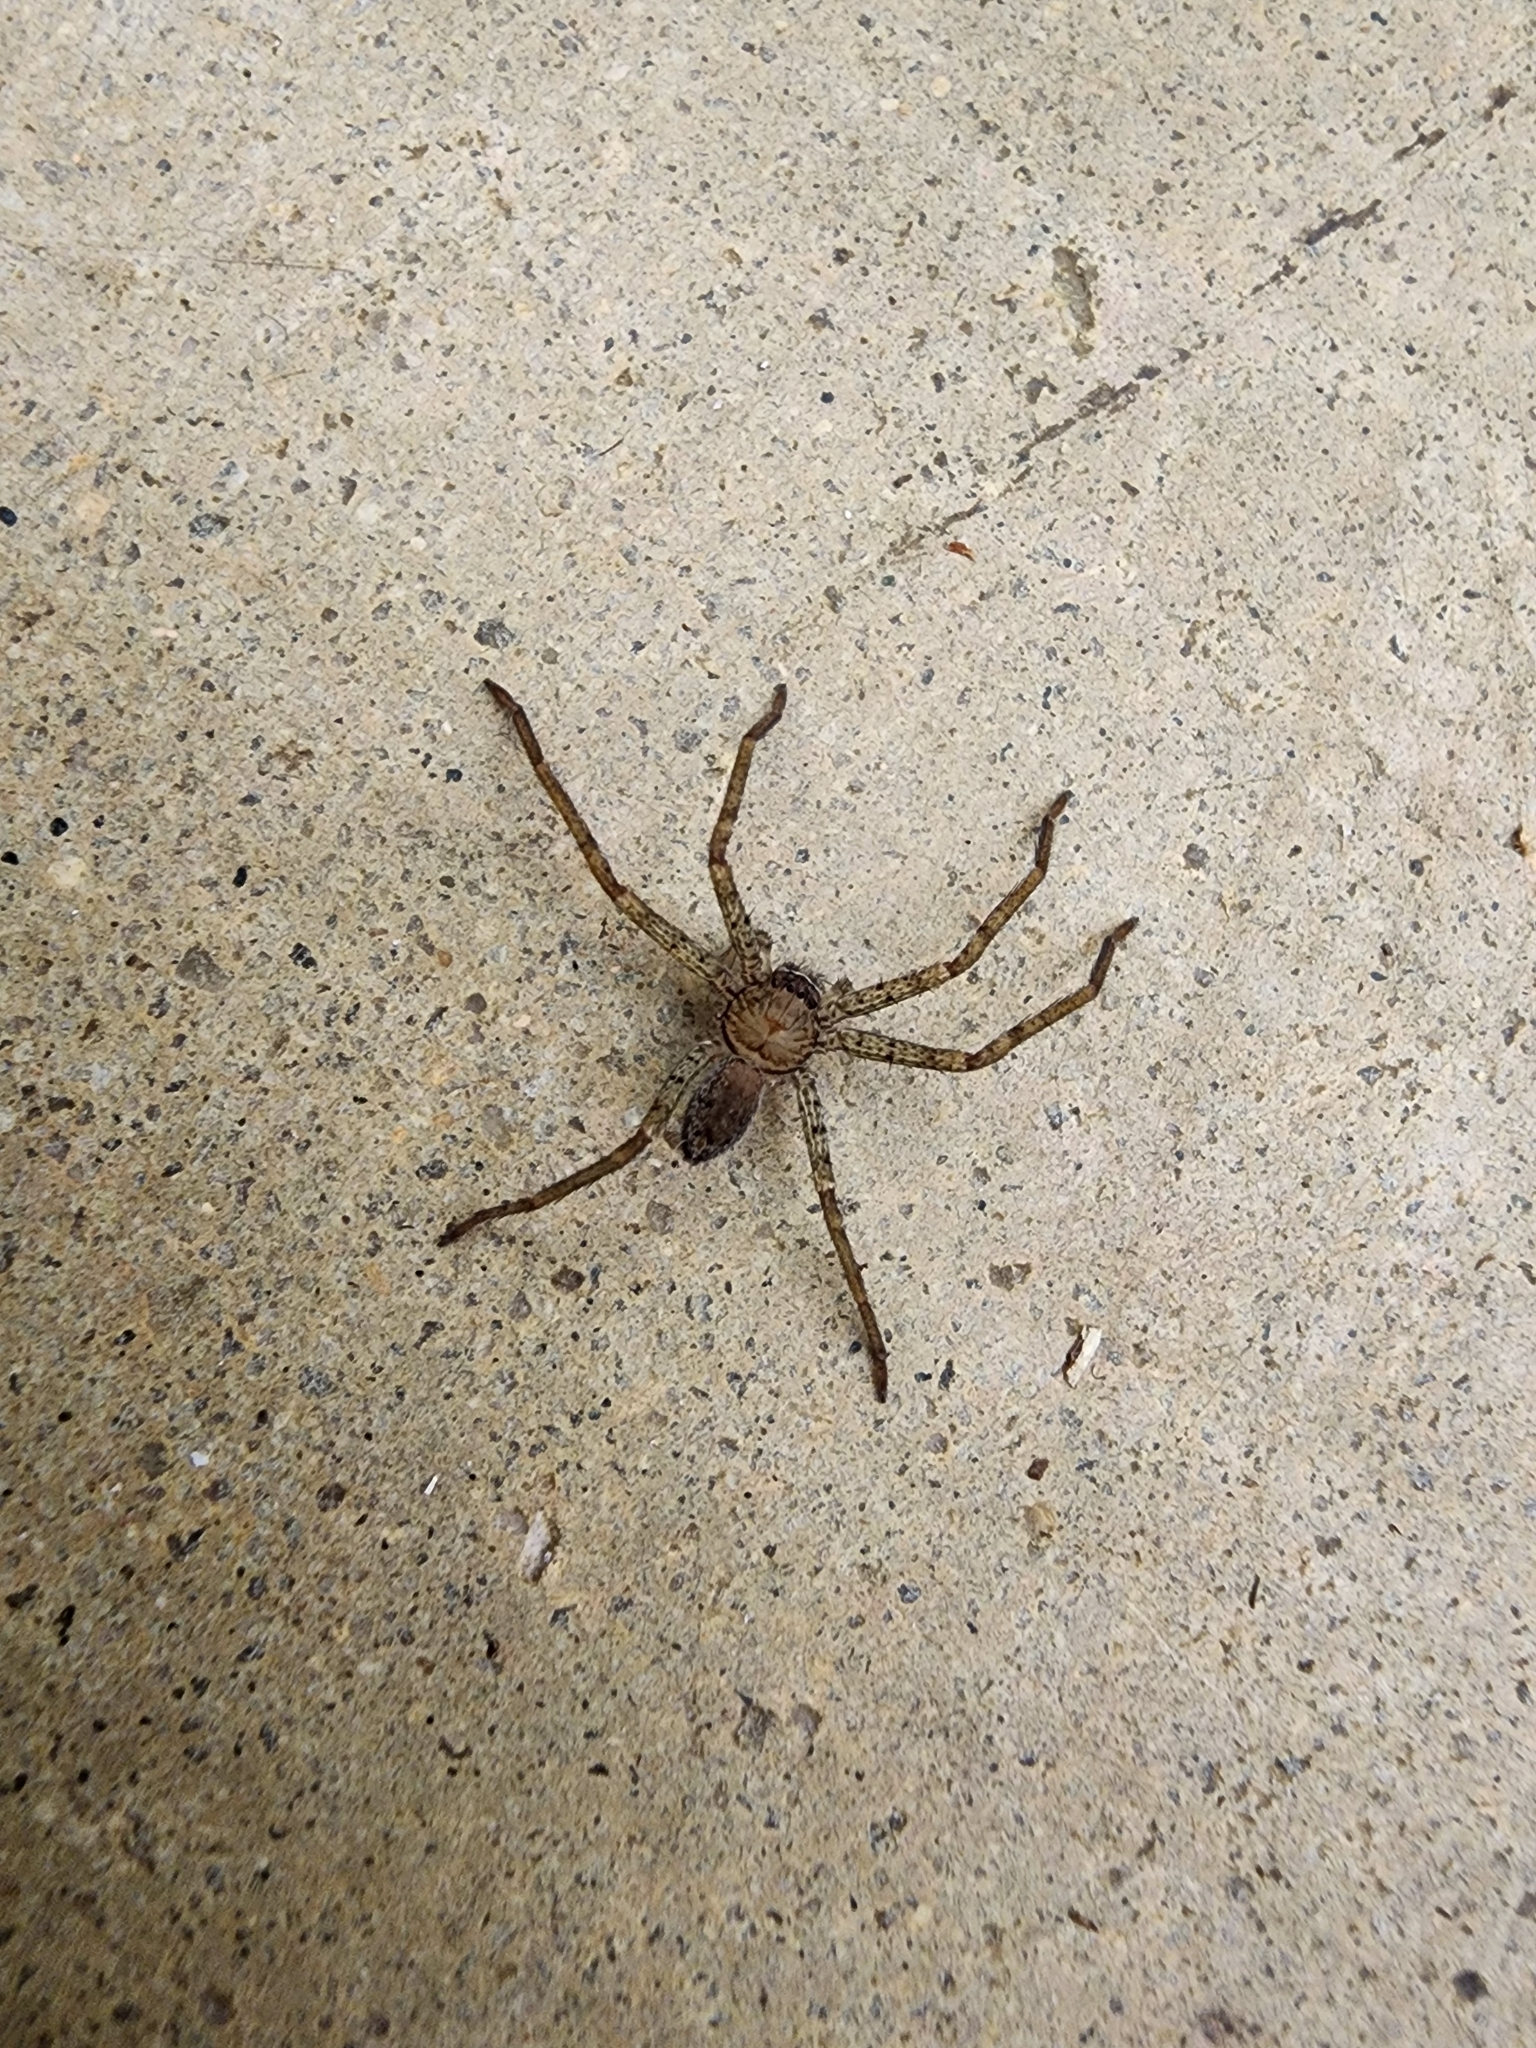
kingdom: Animalia
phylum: Arthropoda
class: Arachnida
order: Araneae
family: Sparassidae
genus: Heteropoda
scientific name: Heteropoda venatoria
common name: Huntsman spider
